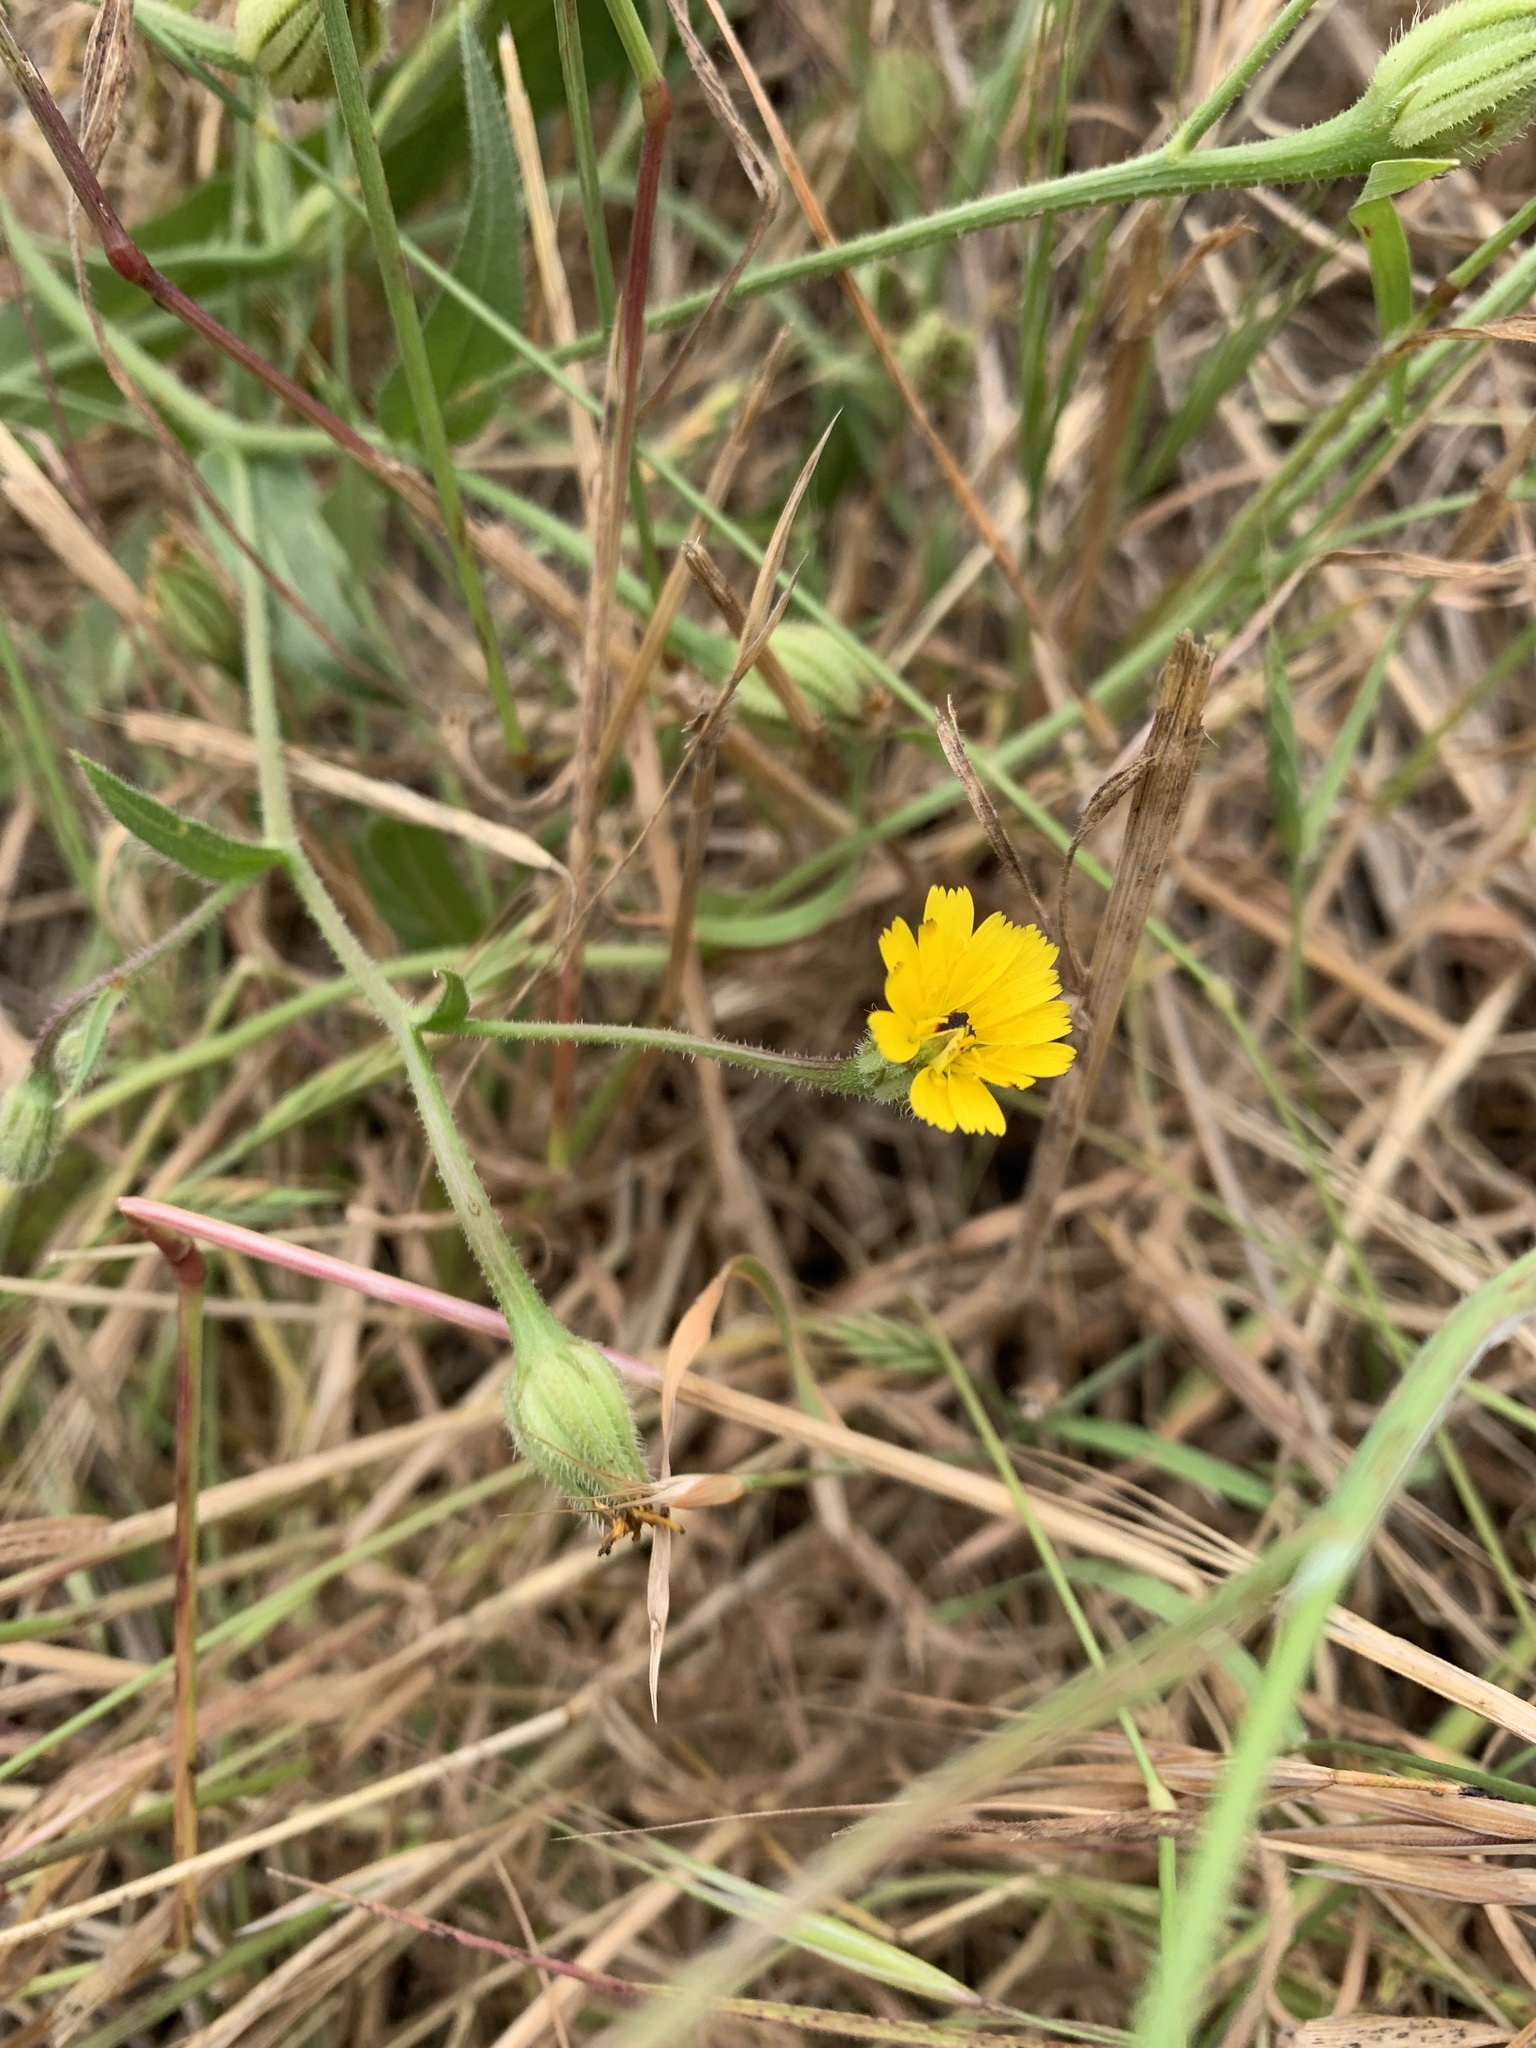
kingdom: Plantae
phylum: Tracheophyta
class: Magnoliopsida
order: Asterales
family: Asteraceae
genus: Hedypnois
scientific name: Hedypnois rhagadioloides
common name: Cretan weed
